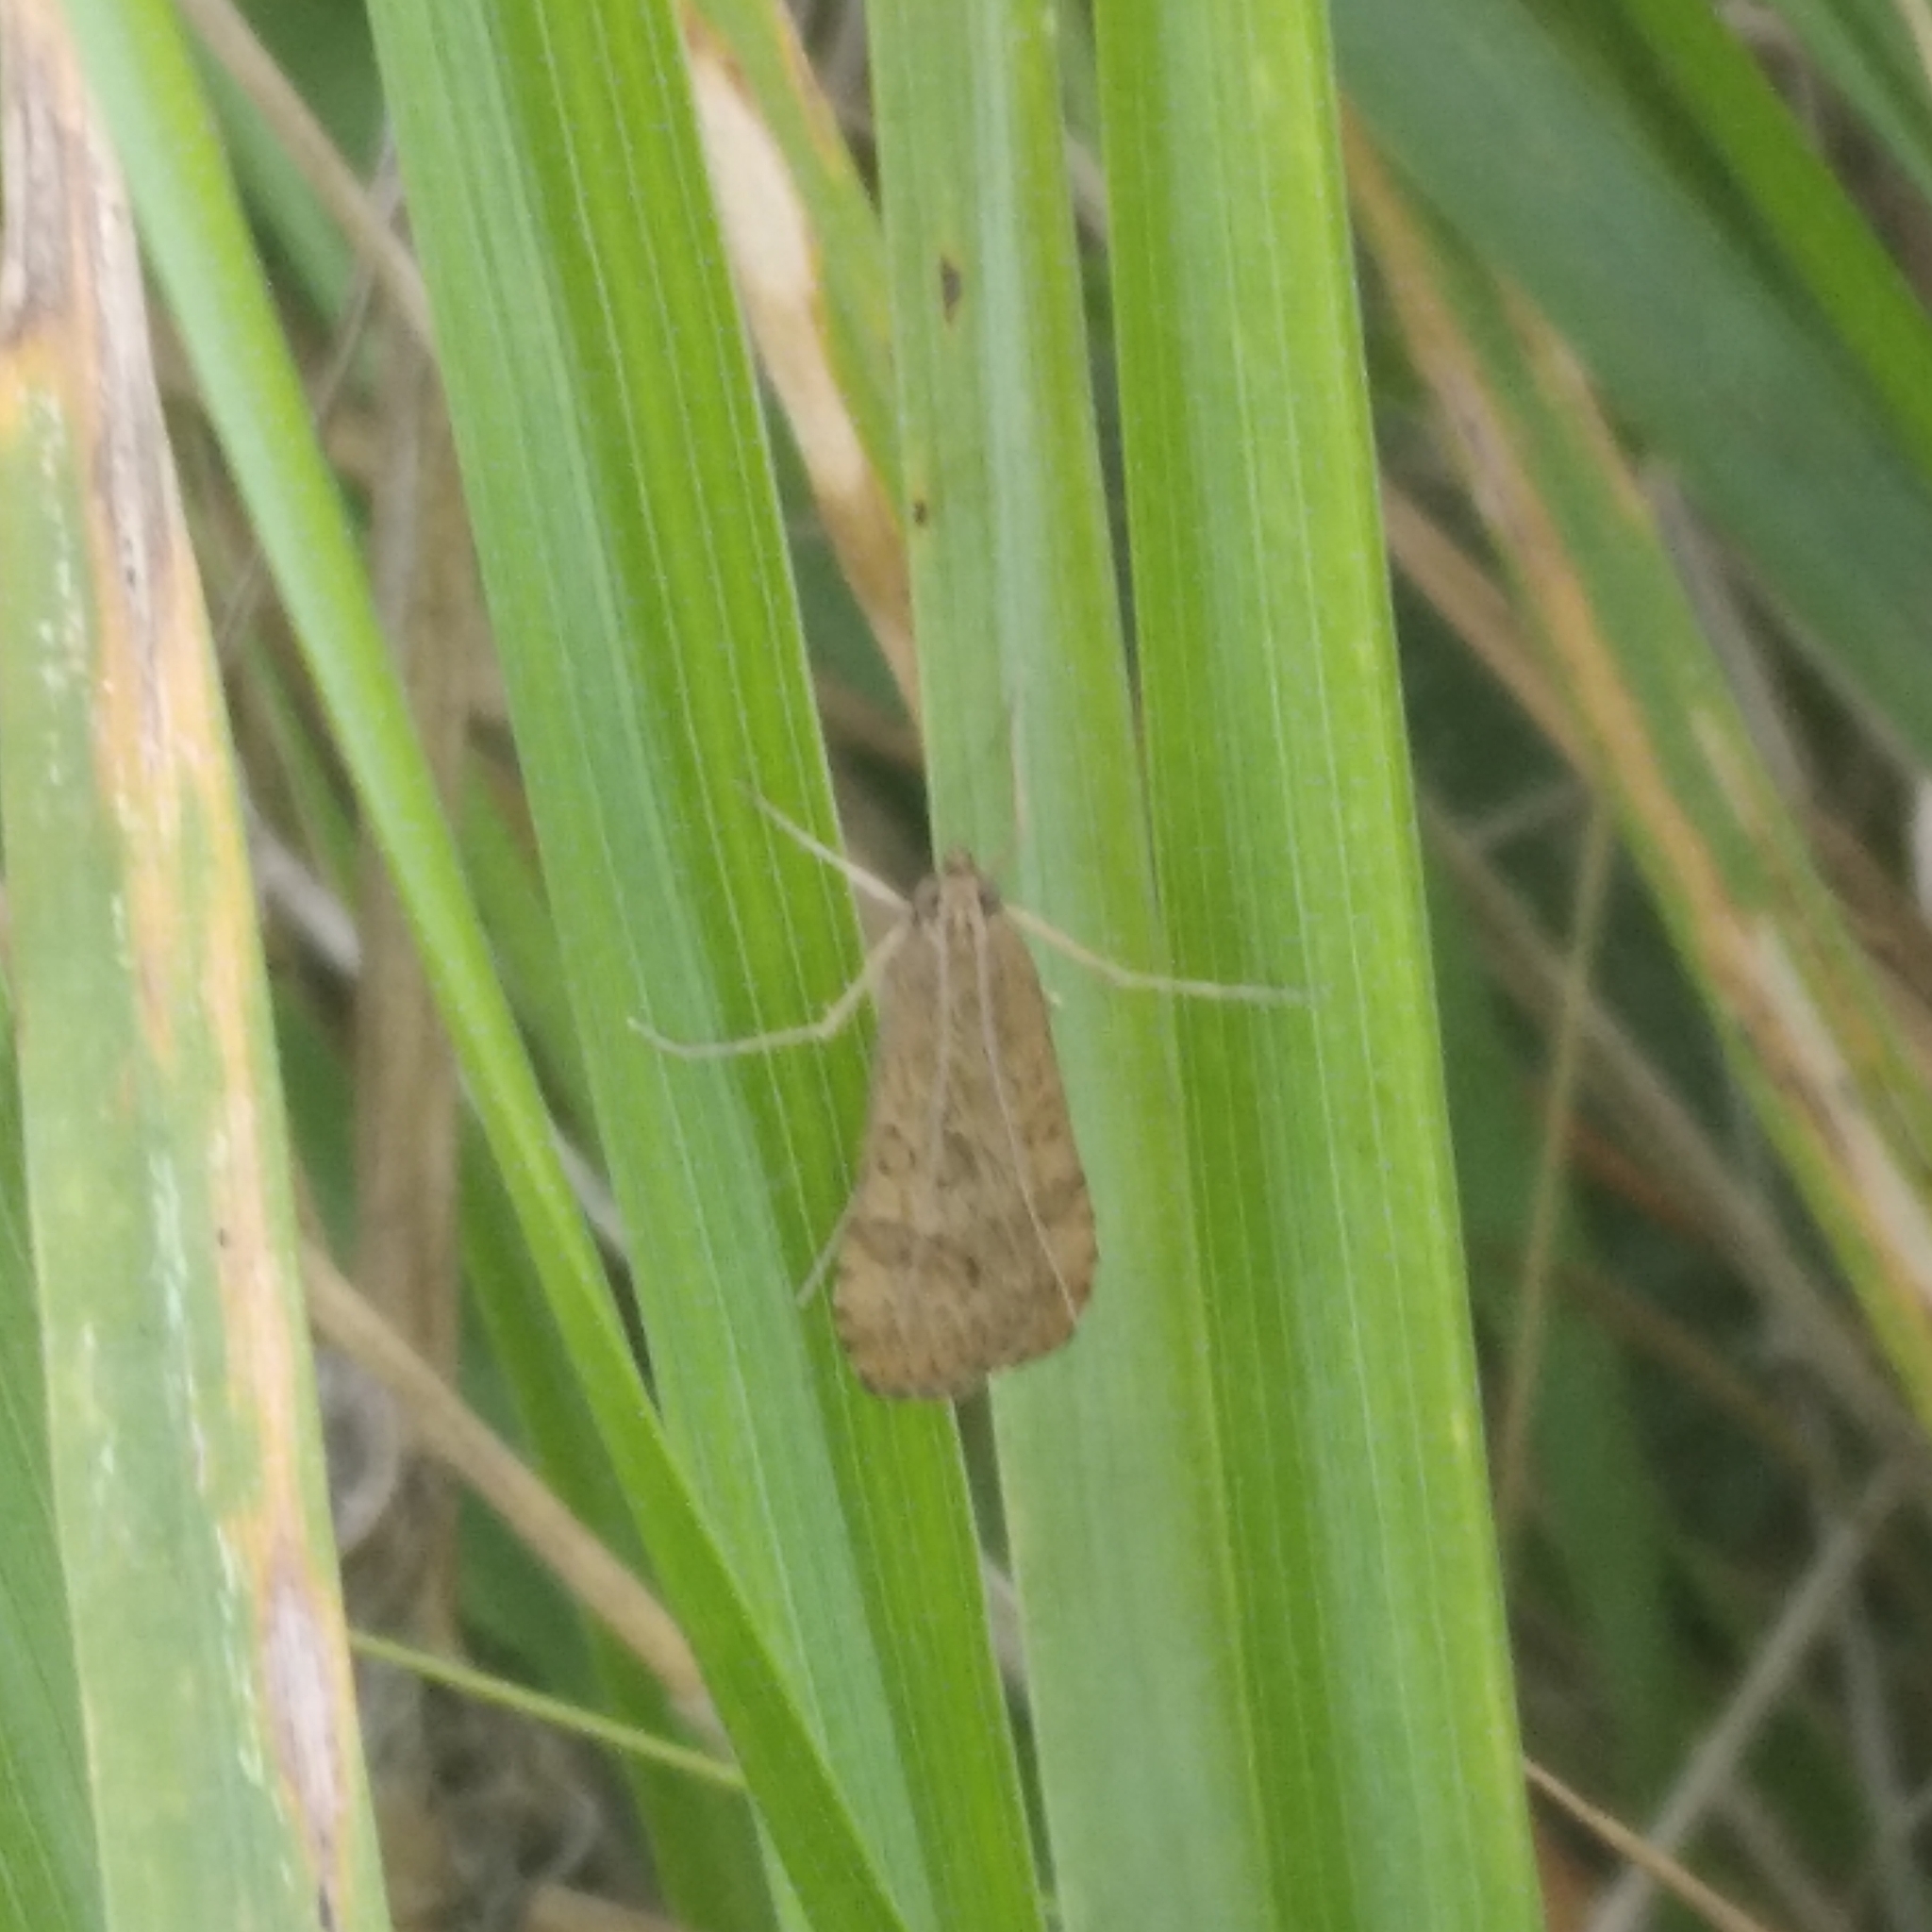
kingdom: Animalia
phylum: Arthropoda
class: Insecta
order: Lepidoptera
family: Crambidae
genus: Nomophila
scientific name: Nomophila noctuella
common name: Rush veneer
